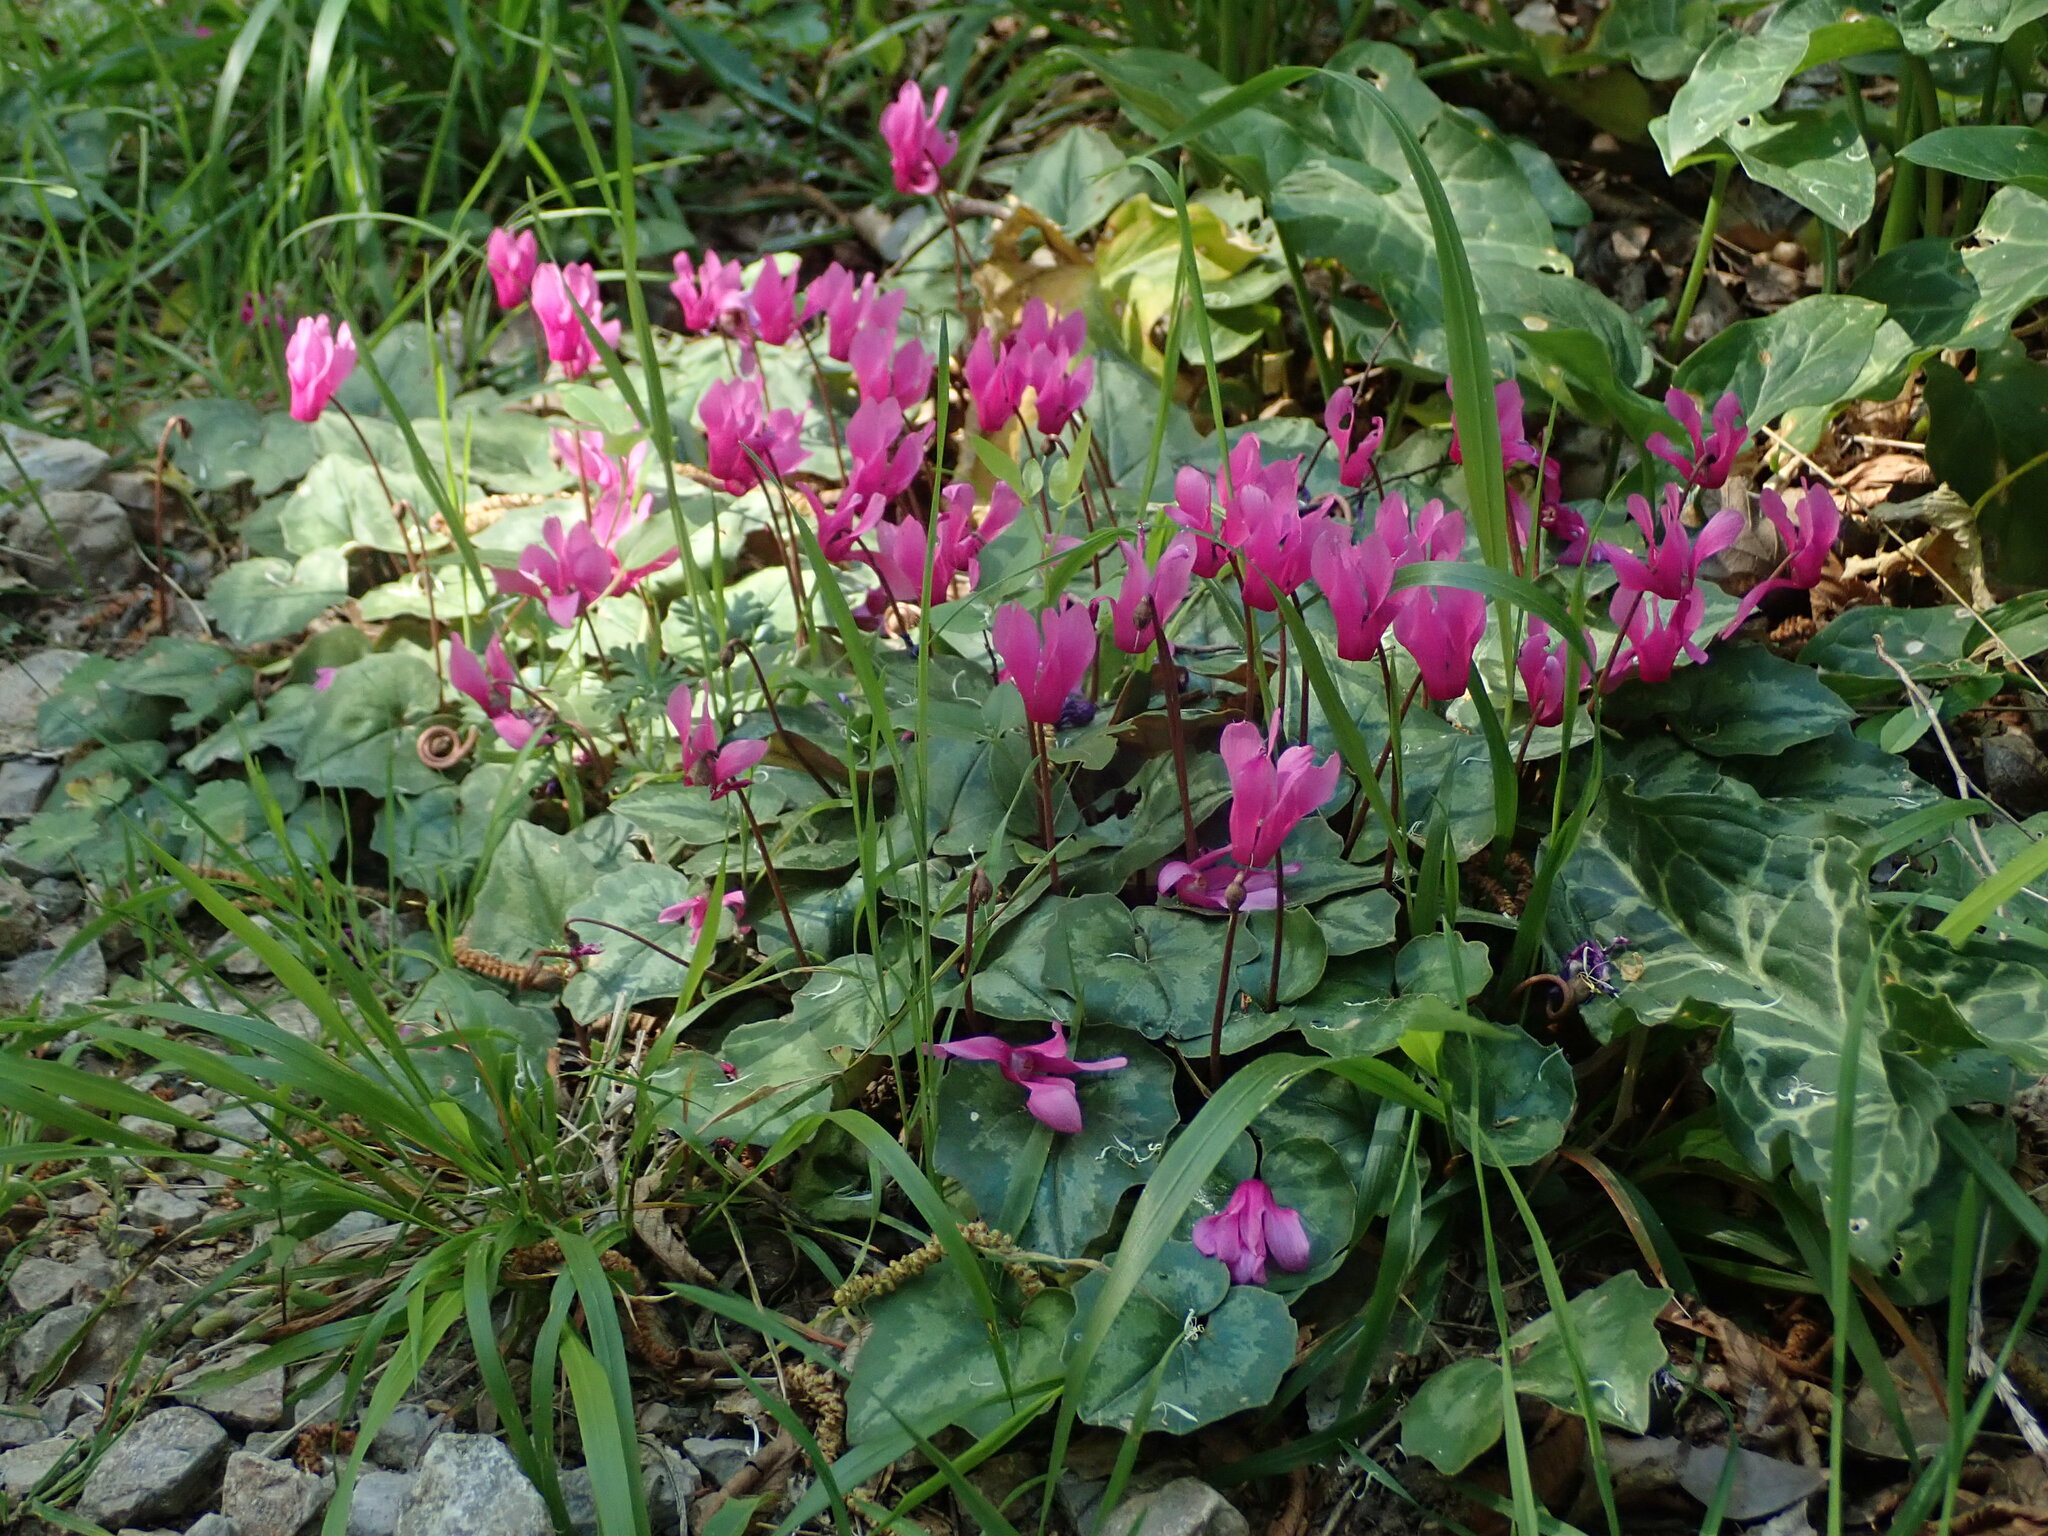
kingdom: Plantae
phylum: Tracheophyta
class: Magnoliopsida
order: Ericales
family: Primulaceae
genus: Cyclamen
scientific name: Cyclamen repandum
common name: Spring sowbread
